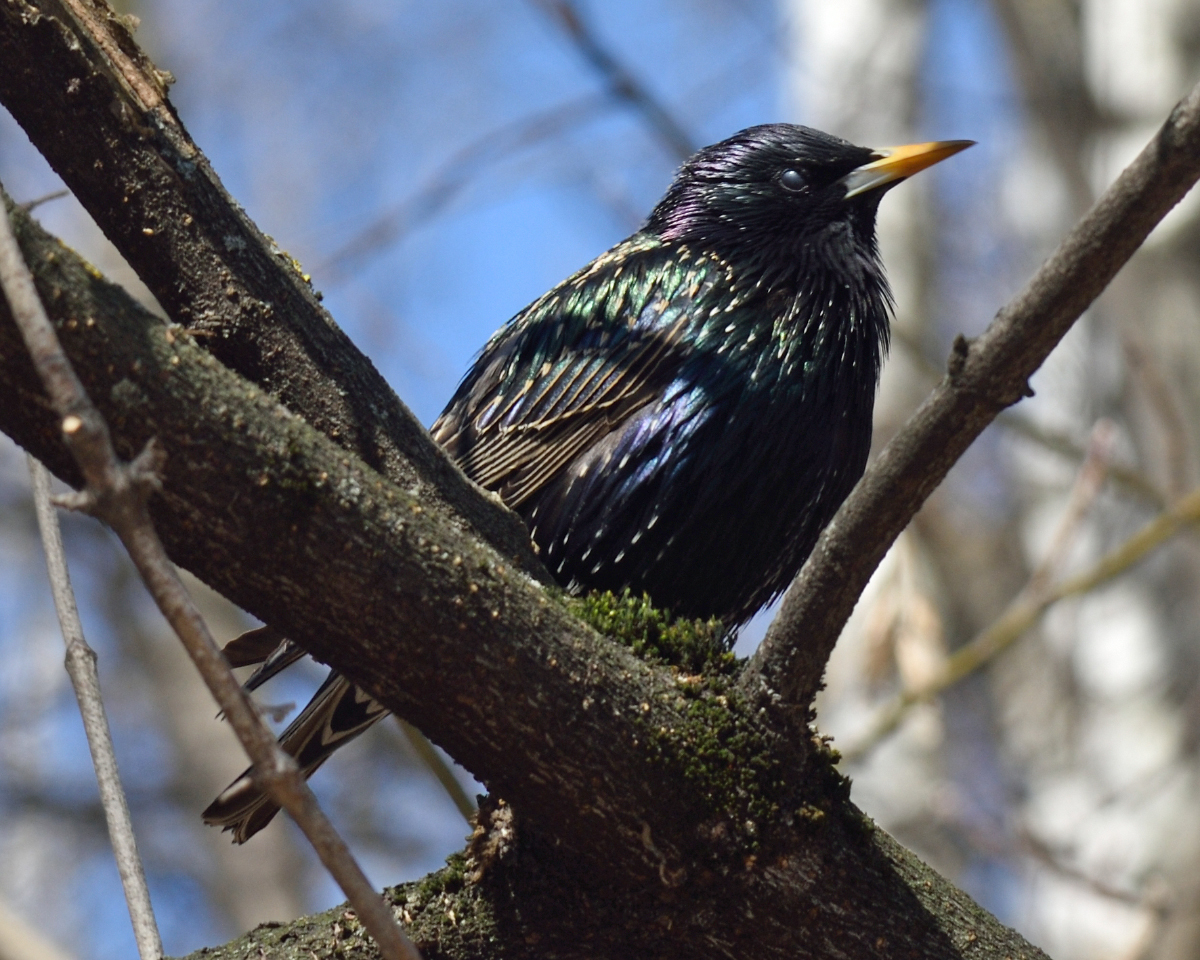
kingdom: Animalia
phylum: Chordata
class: Aves
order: Passeriformes
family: Sturnidae
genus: Sturnus
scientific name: Sturnus vulgaris
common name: Common starling
